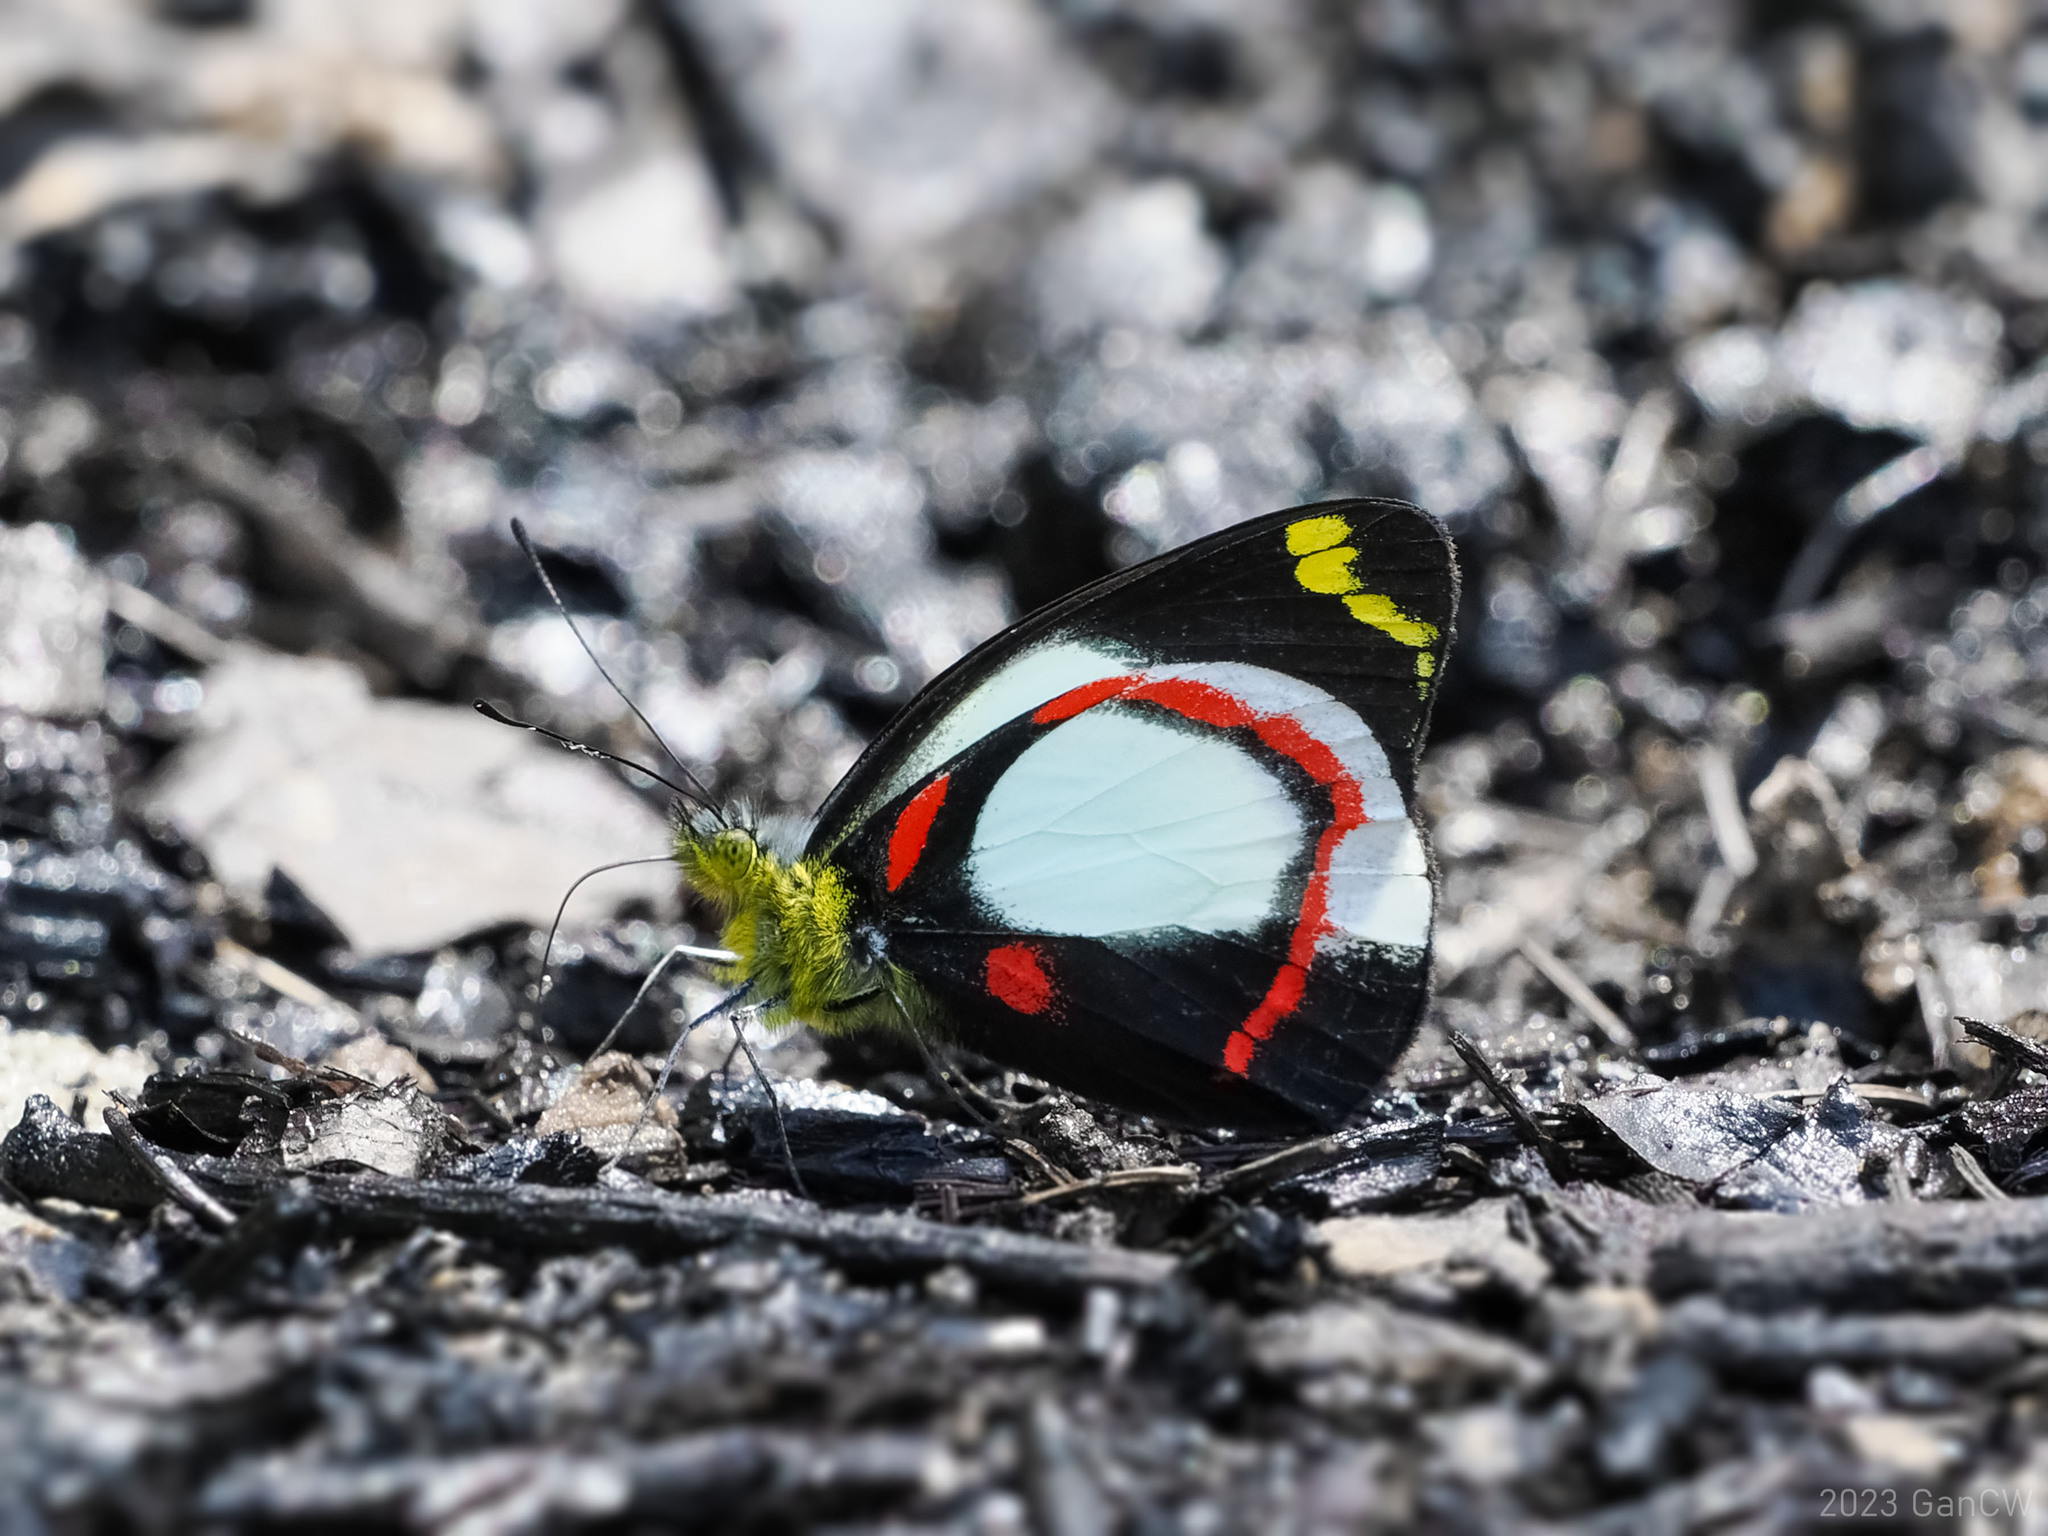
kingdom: Animalia
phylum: Arthropoda
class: Insecta
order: Lepidoptera
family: Pieridae
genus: Delias
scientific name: Delias ligata
